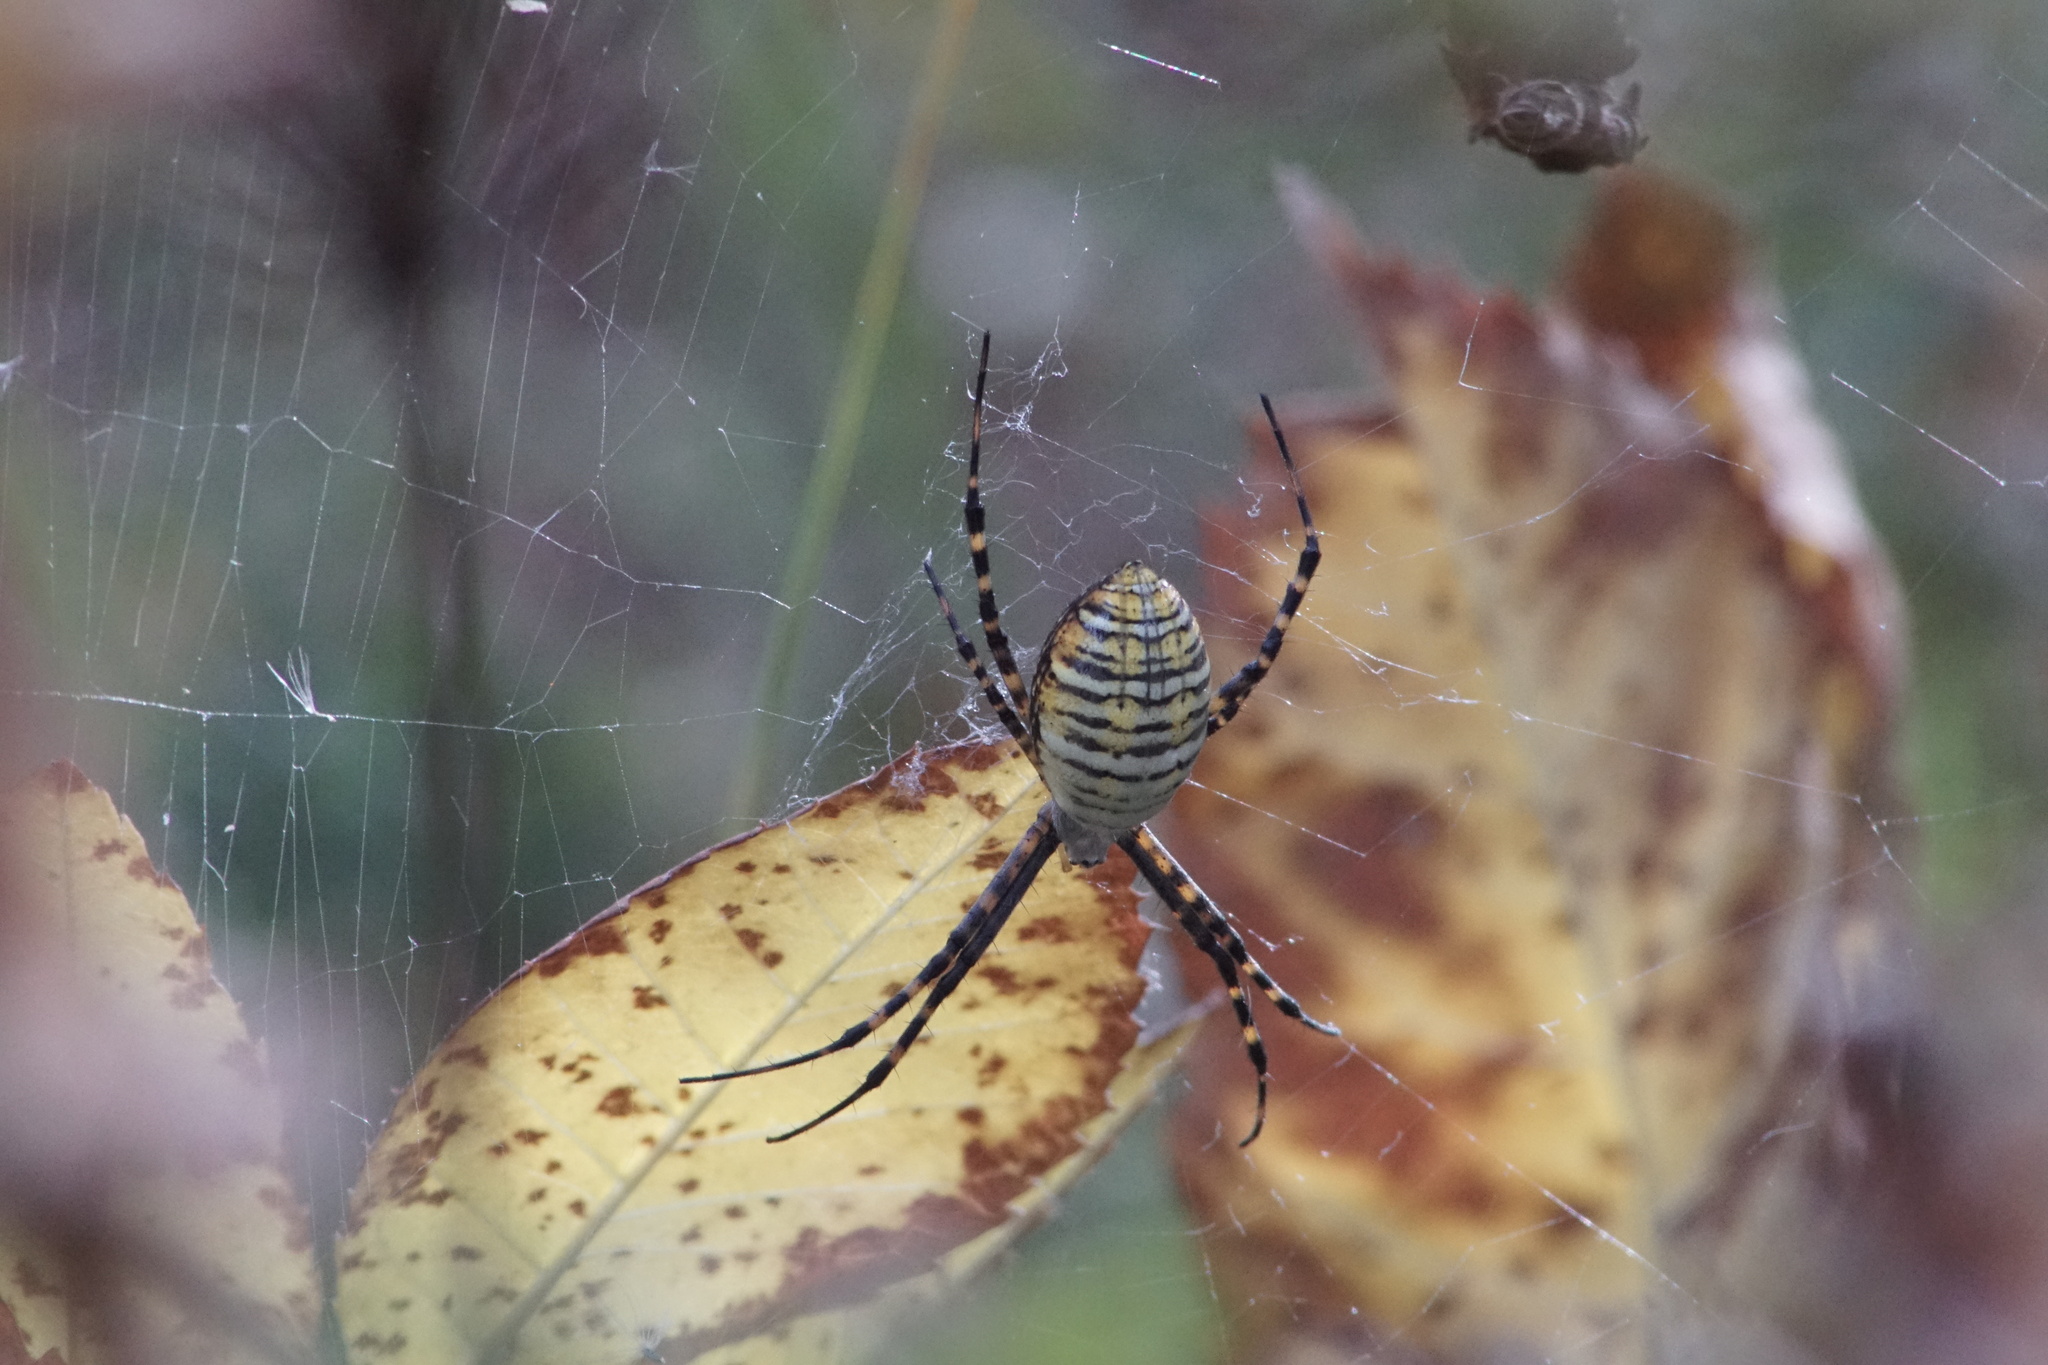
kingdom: Animalia
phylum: Arthropoda
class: Arachnida
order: Araneae
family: Araneidae
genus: Argiope
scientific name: Argiope trifasciata
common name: Banded garden spider
